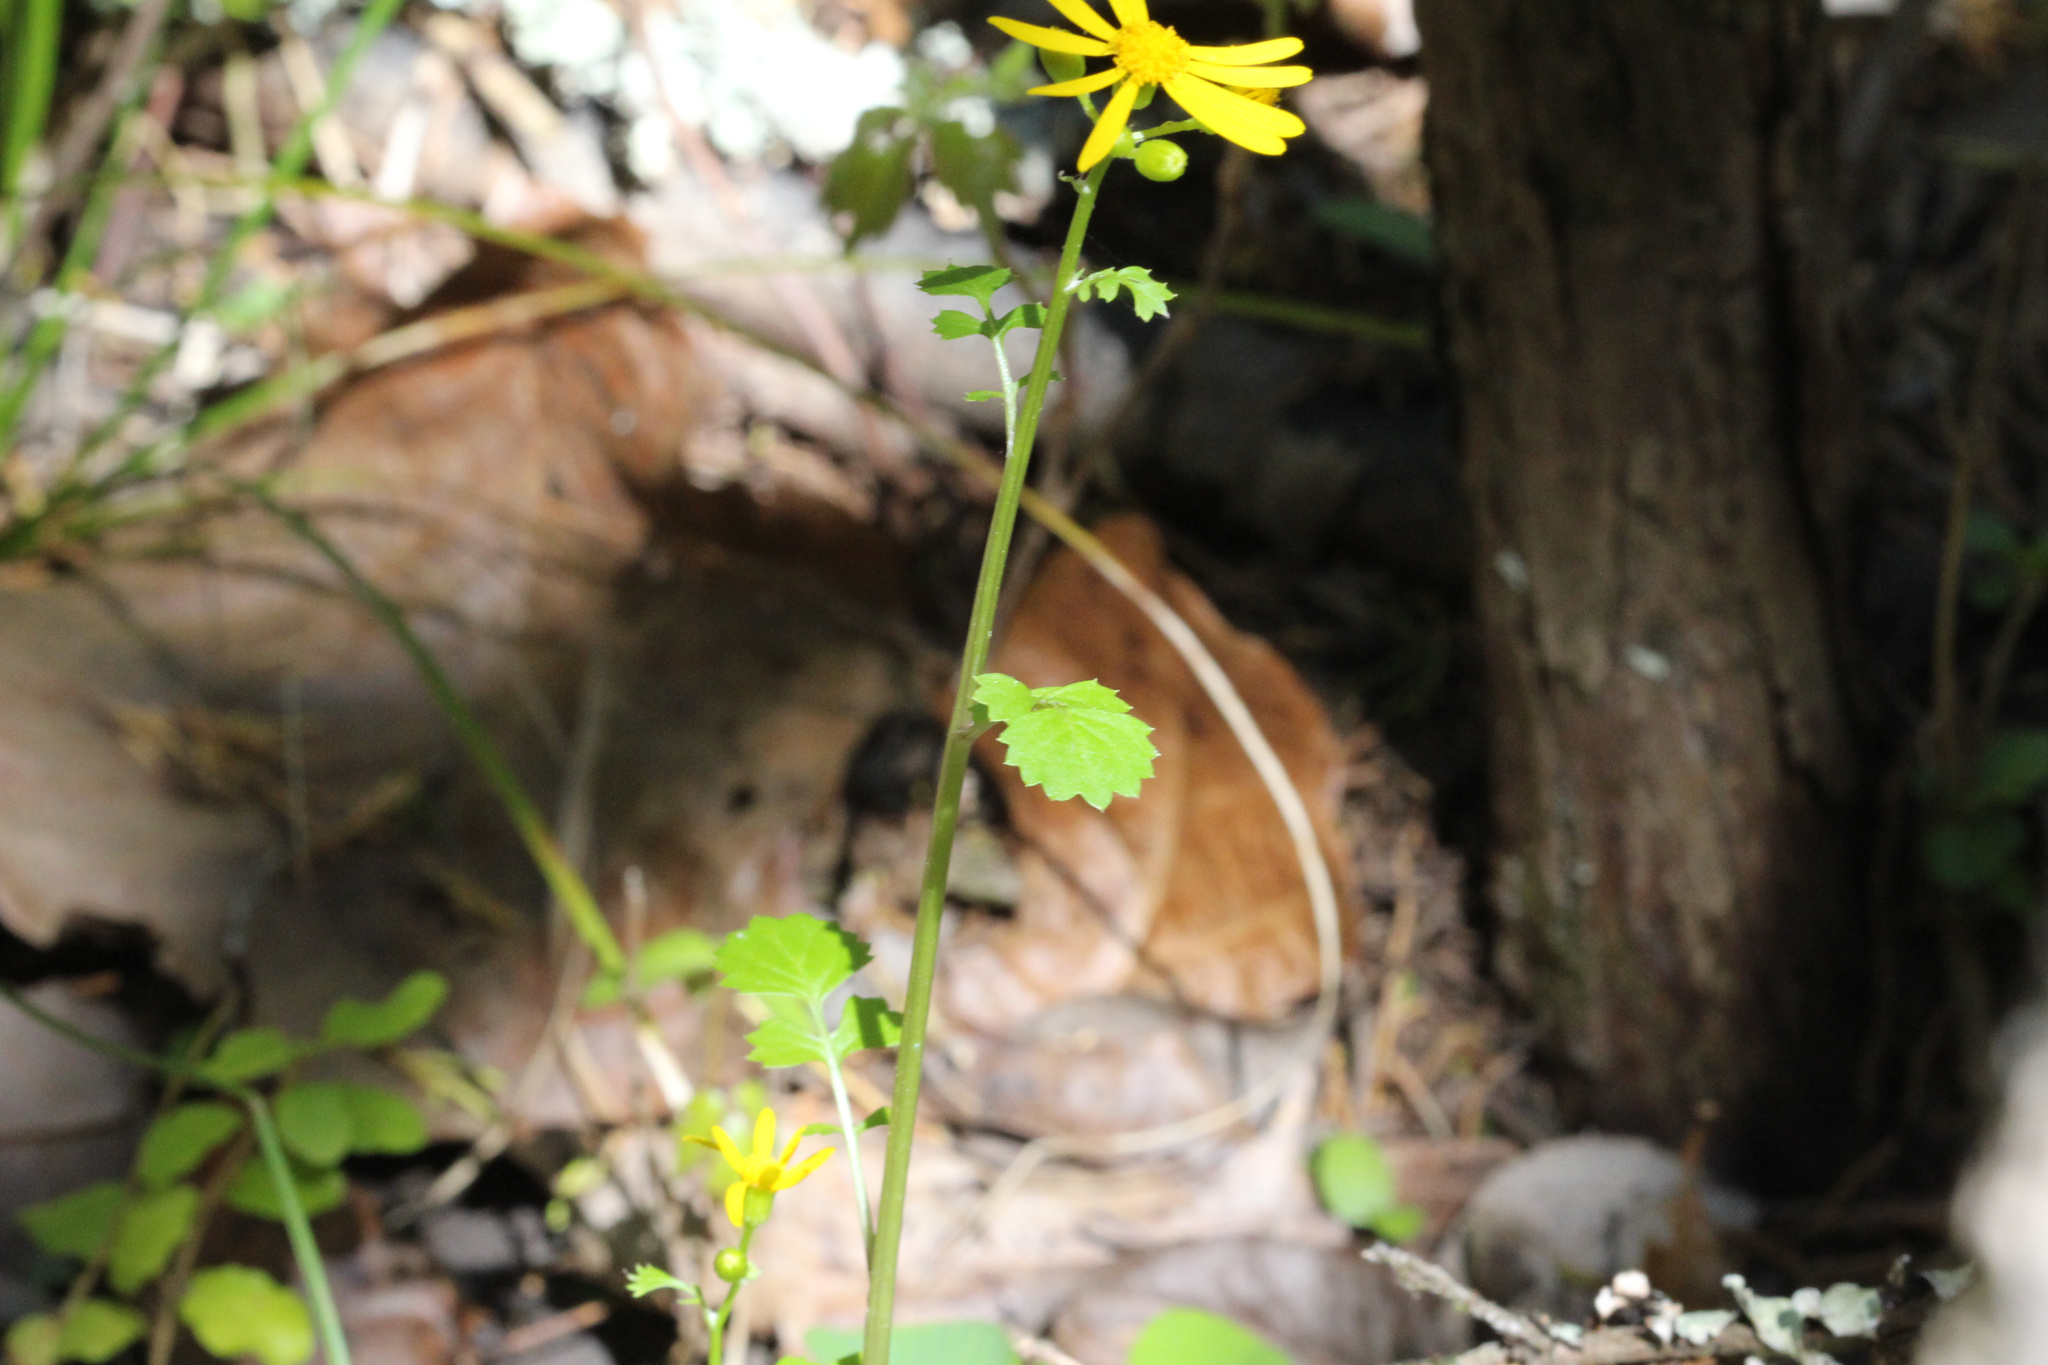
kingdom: Plantae
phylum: Tracheophyta
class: Magnoliopsida
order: Asterales
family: Asteraceae
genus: Packera
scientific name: Packera glabella
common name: Butterweed
